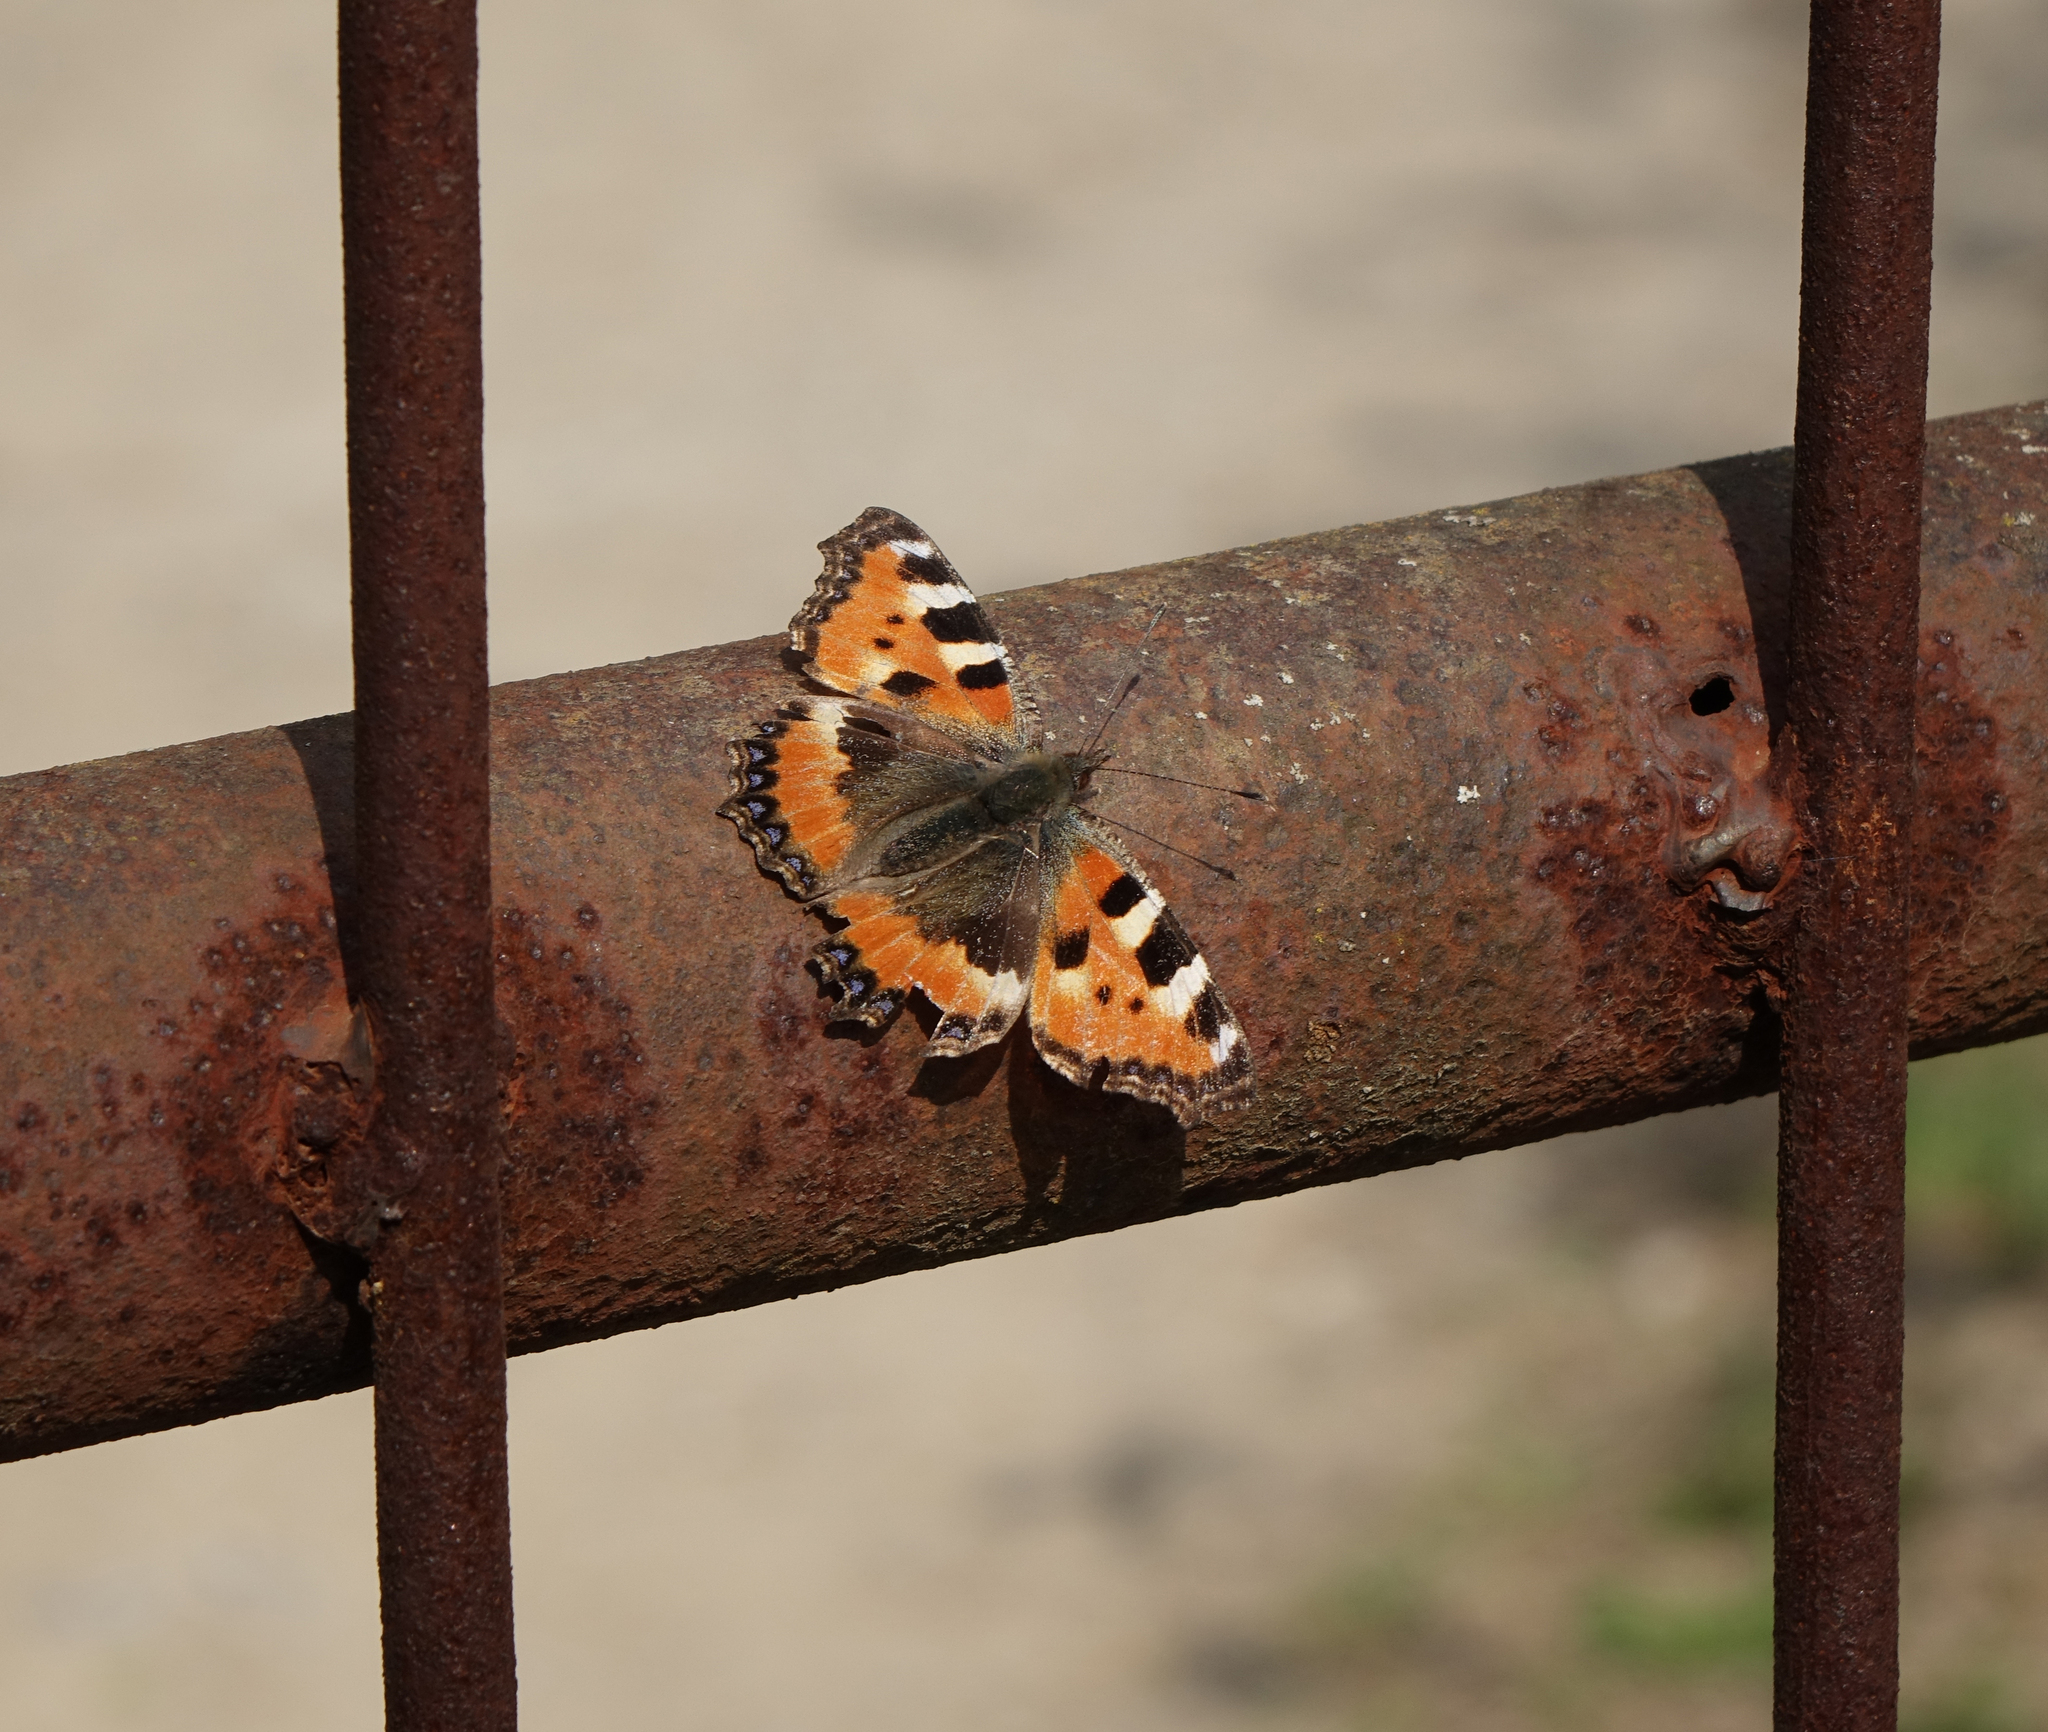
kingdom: Animalia
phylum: Arthropoda
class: Insecta
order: Lepidoptera
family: Nymphalidae
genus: Aglais
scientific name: Aglais urticae
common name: Small tortoiseshell
